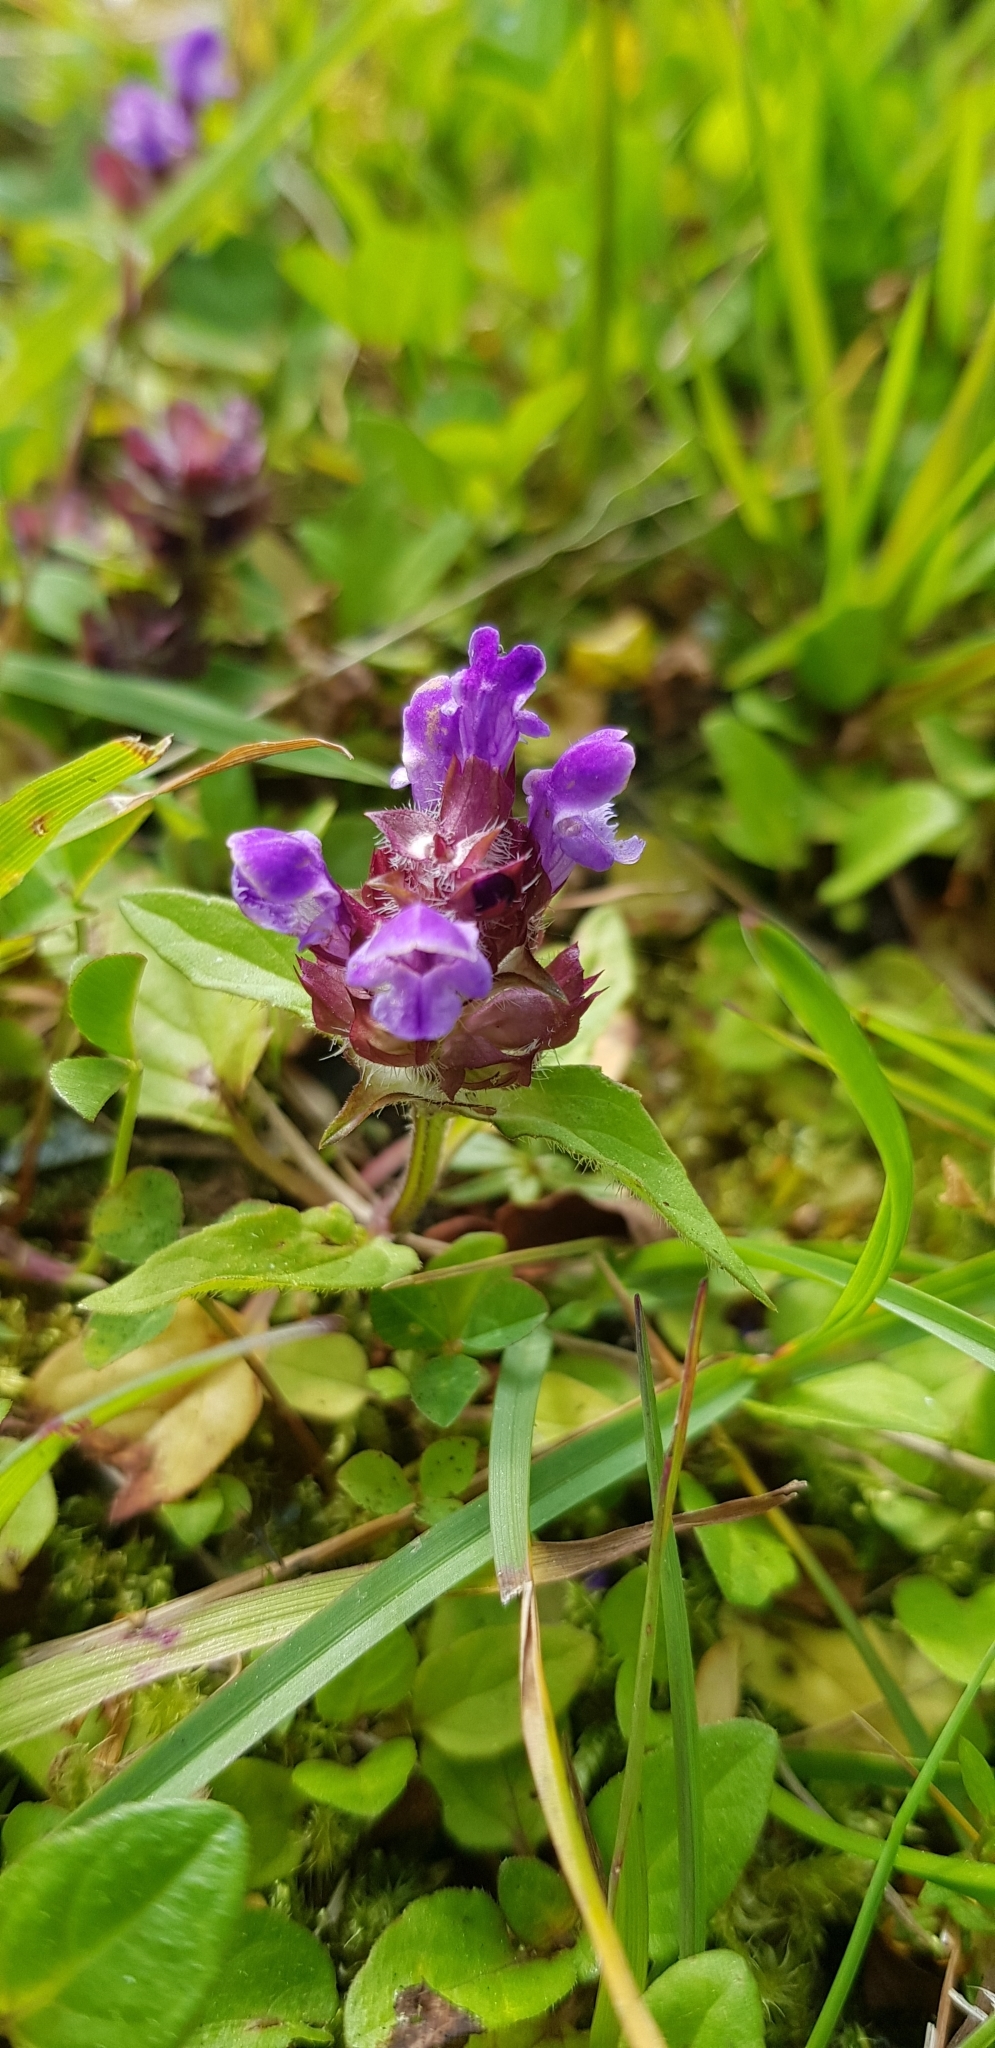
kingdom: Plantae
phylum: Tracheophyta
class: Magnoliopsida
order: Lamiales
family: Lamiaceae
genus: Prunella
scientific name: Prunella vulgaris
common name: Heal-all
